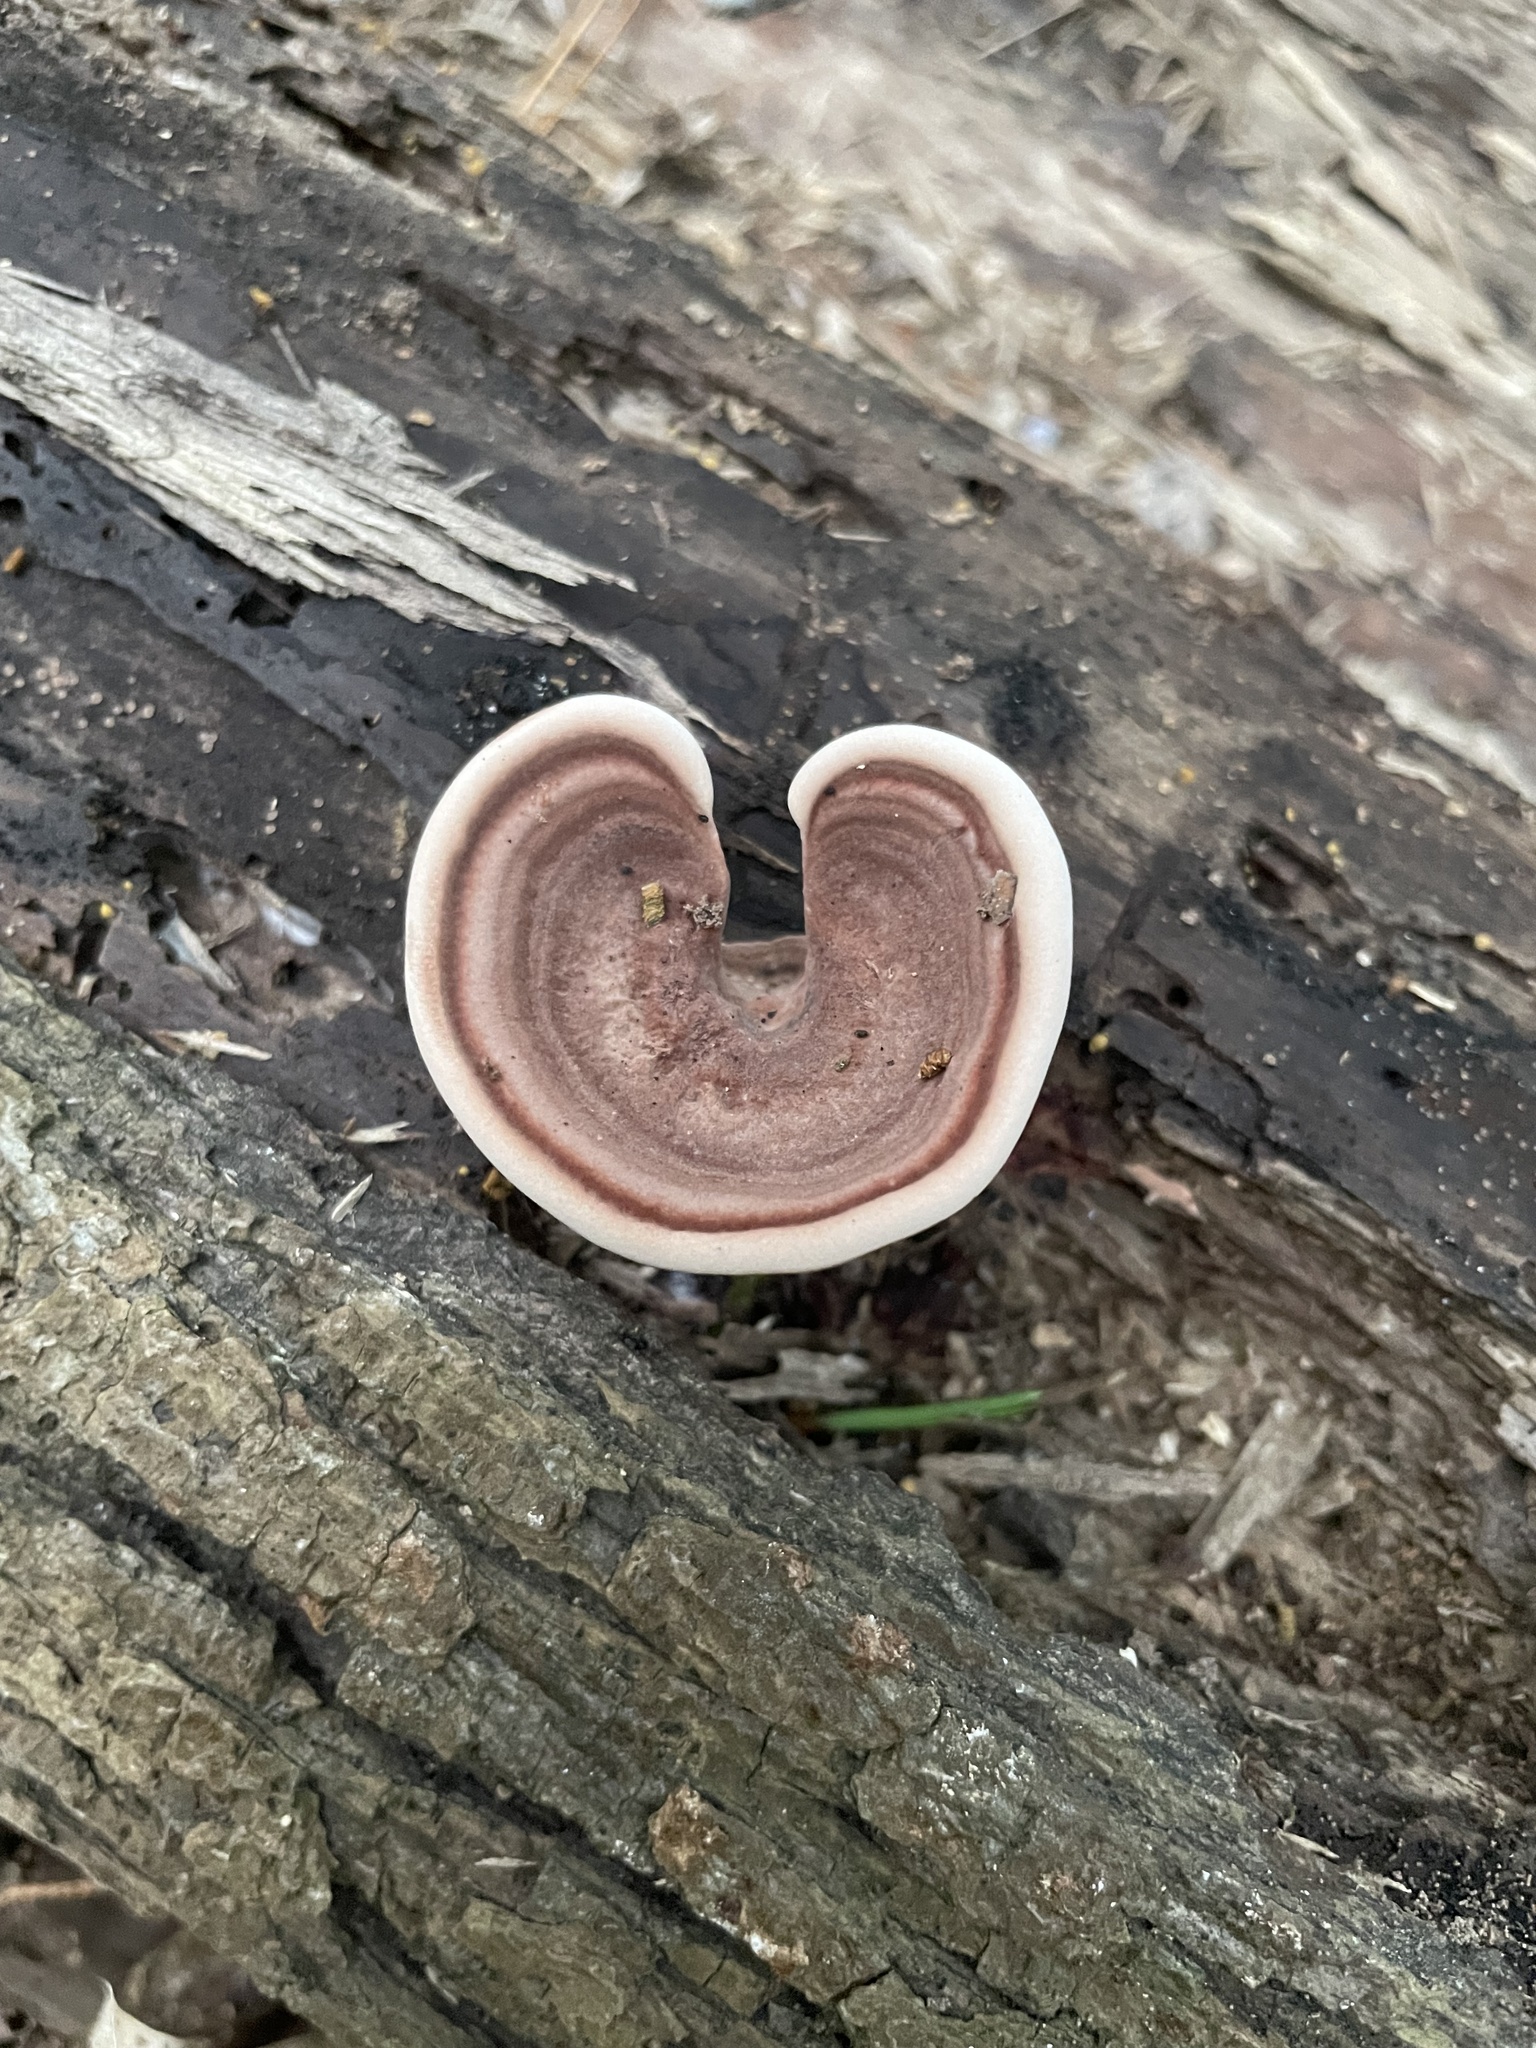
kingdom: Fungi
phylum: Basidiomycota
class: Agaricomycetes
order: Polyporales
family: Steccherinaceae
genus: Nigroporus
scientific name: Nigroporus vinosus
